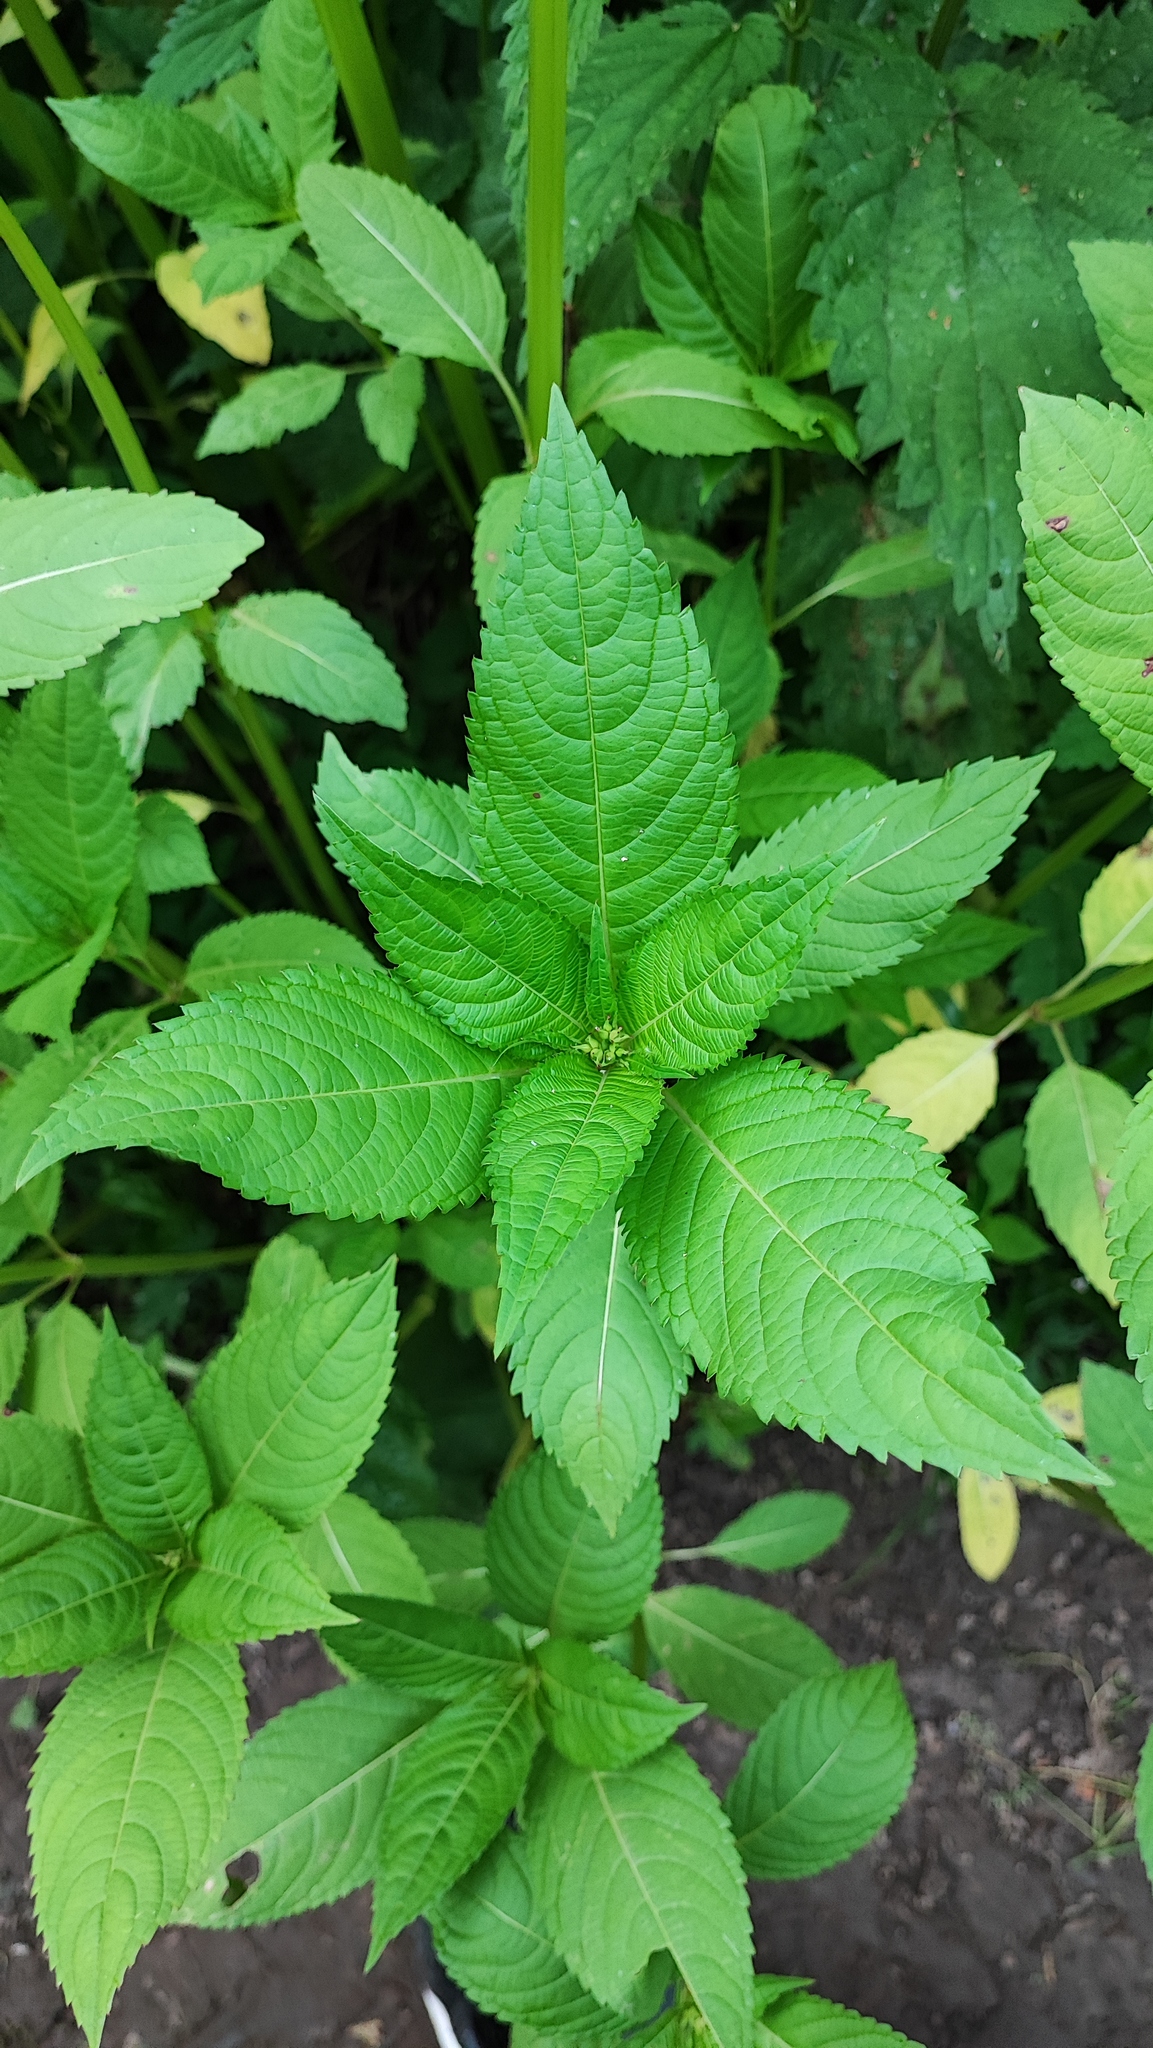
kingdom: Plantae
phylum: Tracheophyta
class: Magnoliopsida
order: Ericales
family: Balsaminaceae
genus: Impatiens
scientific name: Impatiens glandulifera
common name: Himalayan balsam
